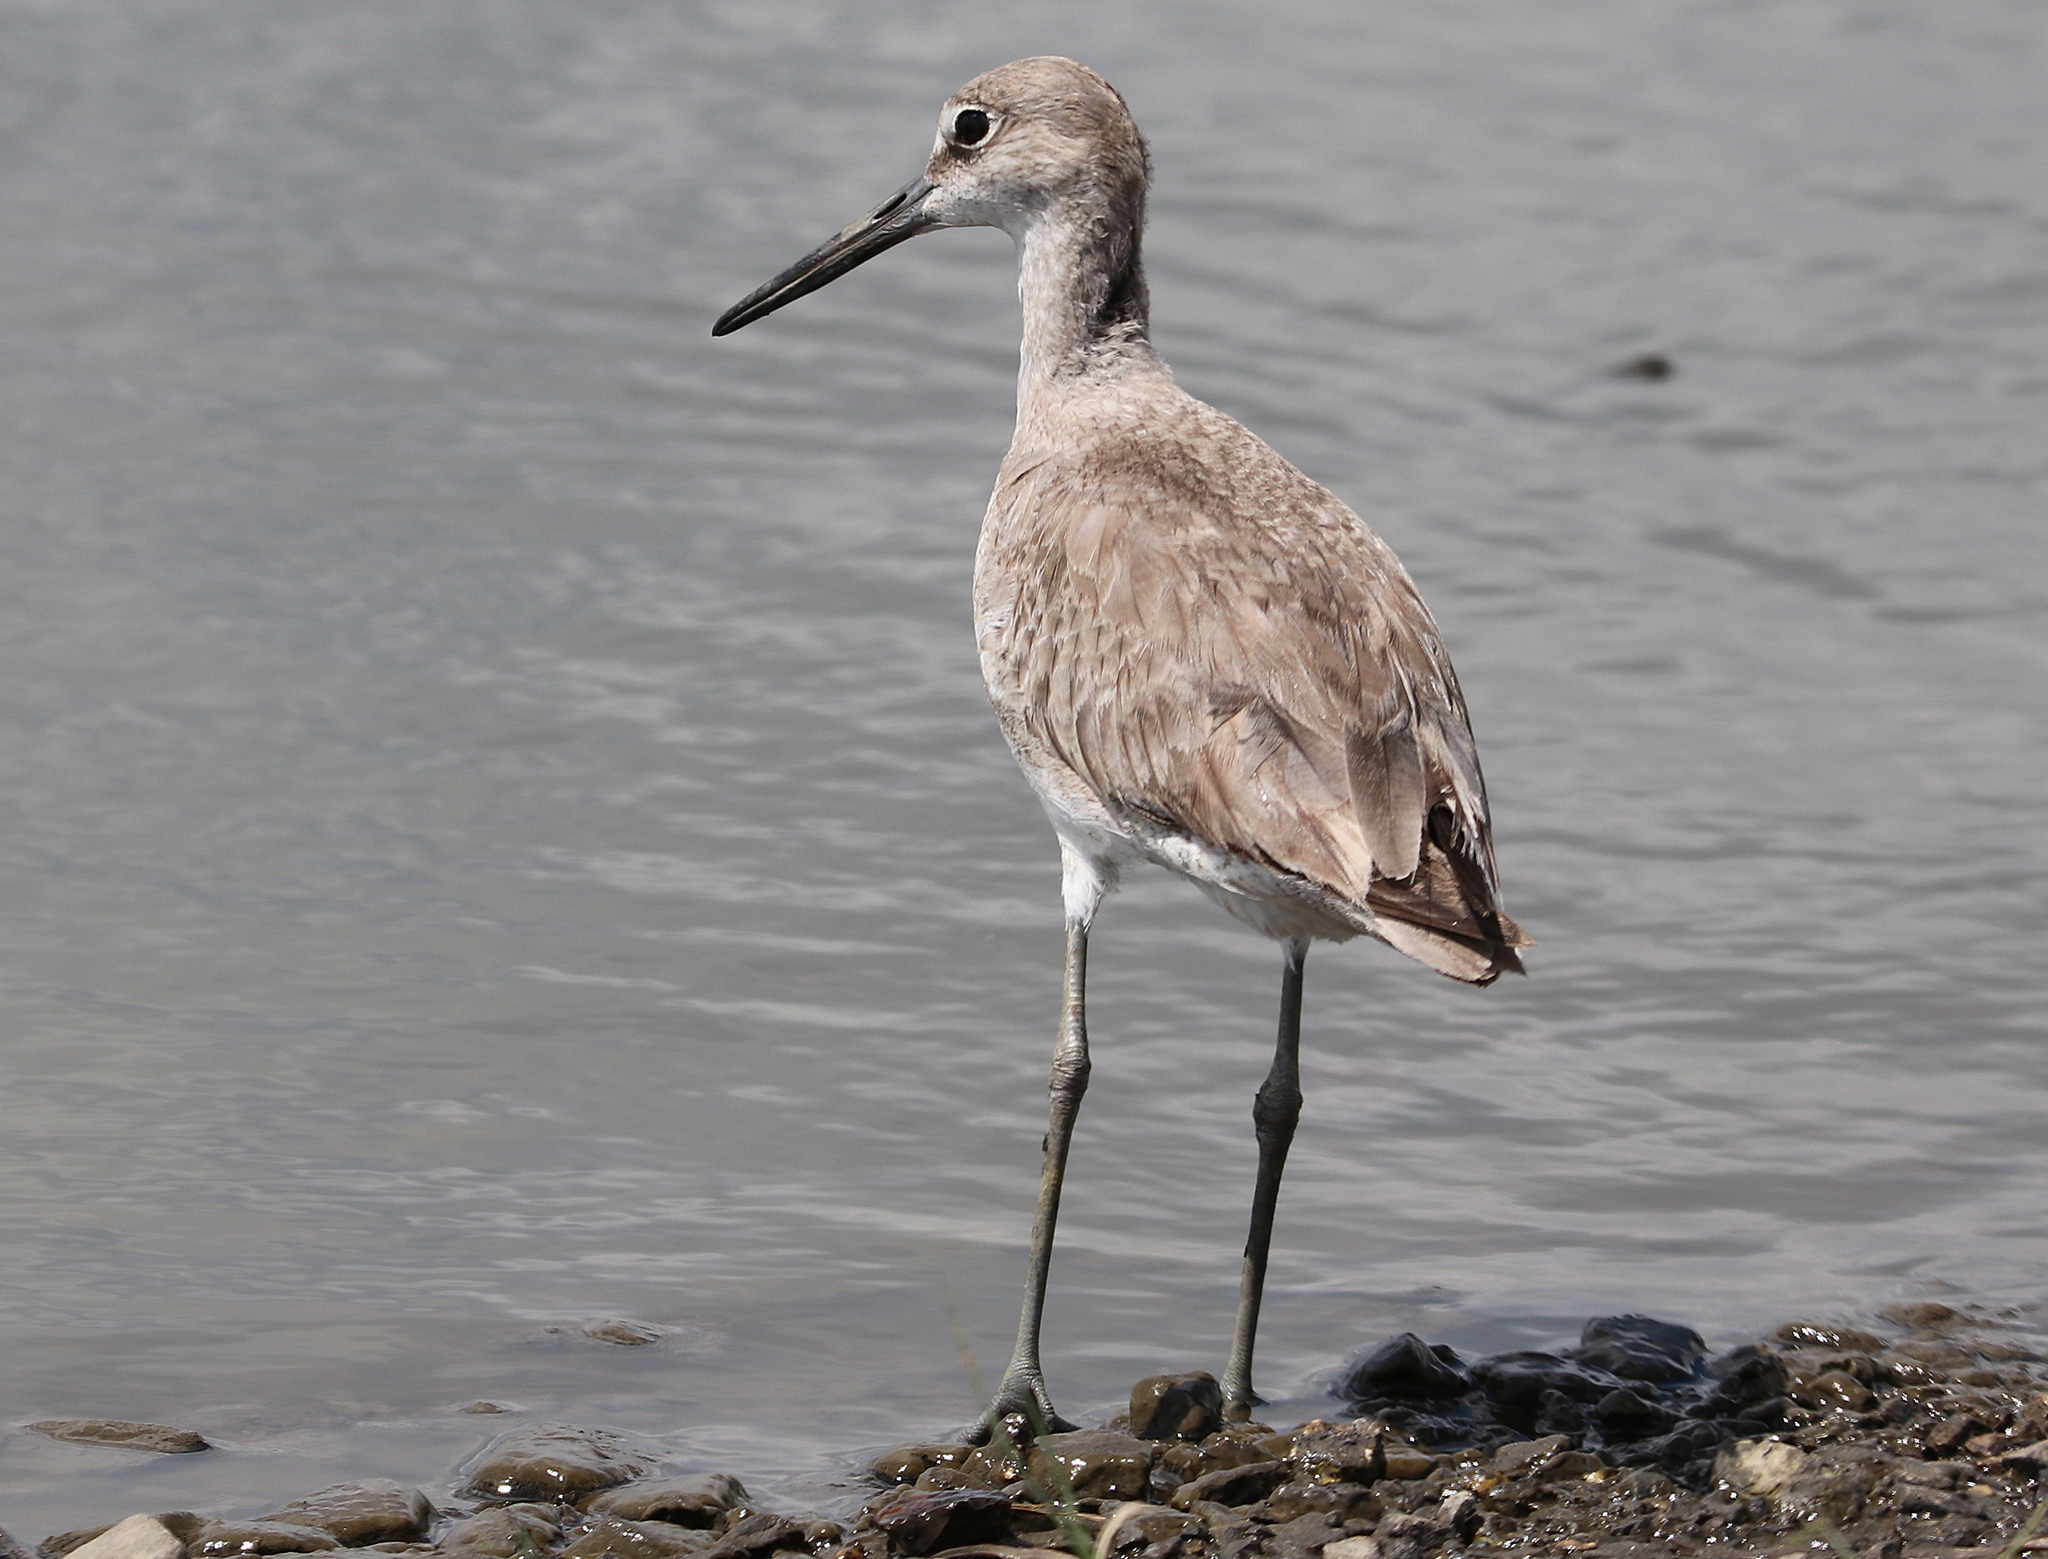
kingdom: Animalia
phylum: Chordata
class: Aves
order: Charadriiformes
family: Scolopacidae
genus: Tringa
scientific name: Tringa semipalmata
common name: Willet
